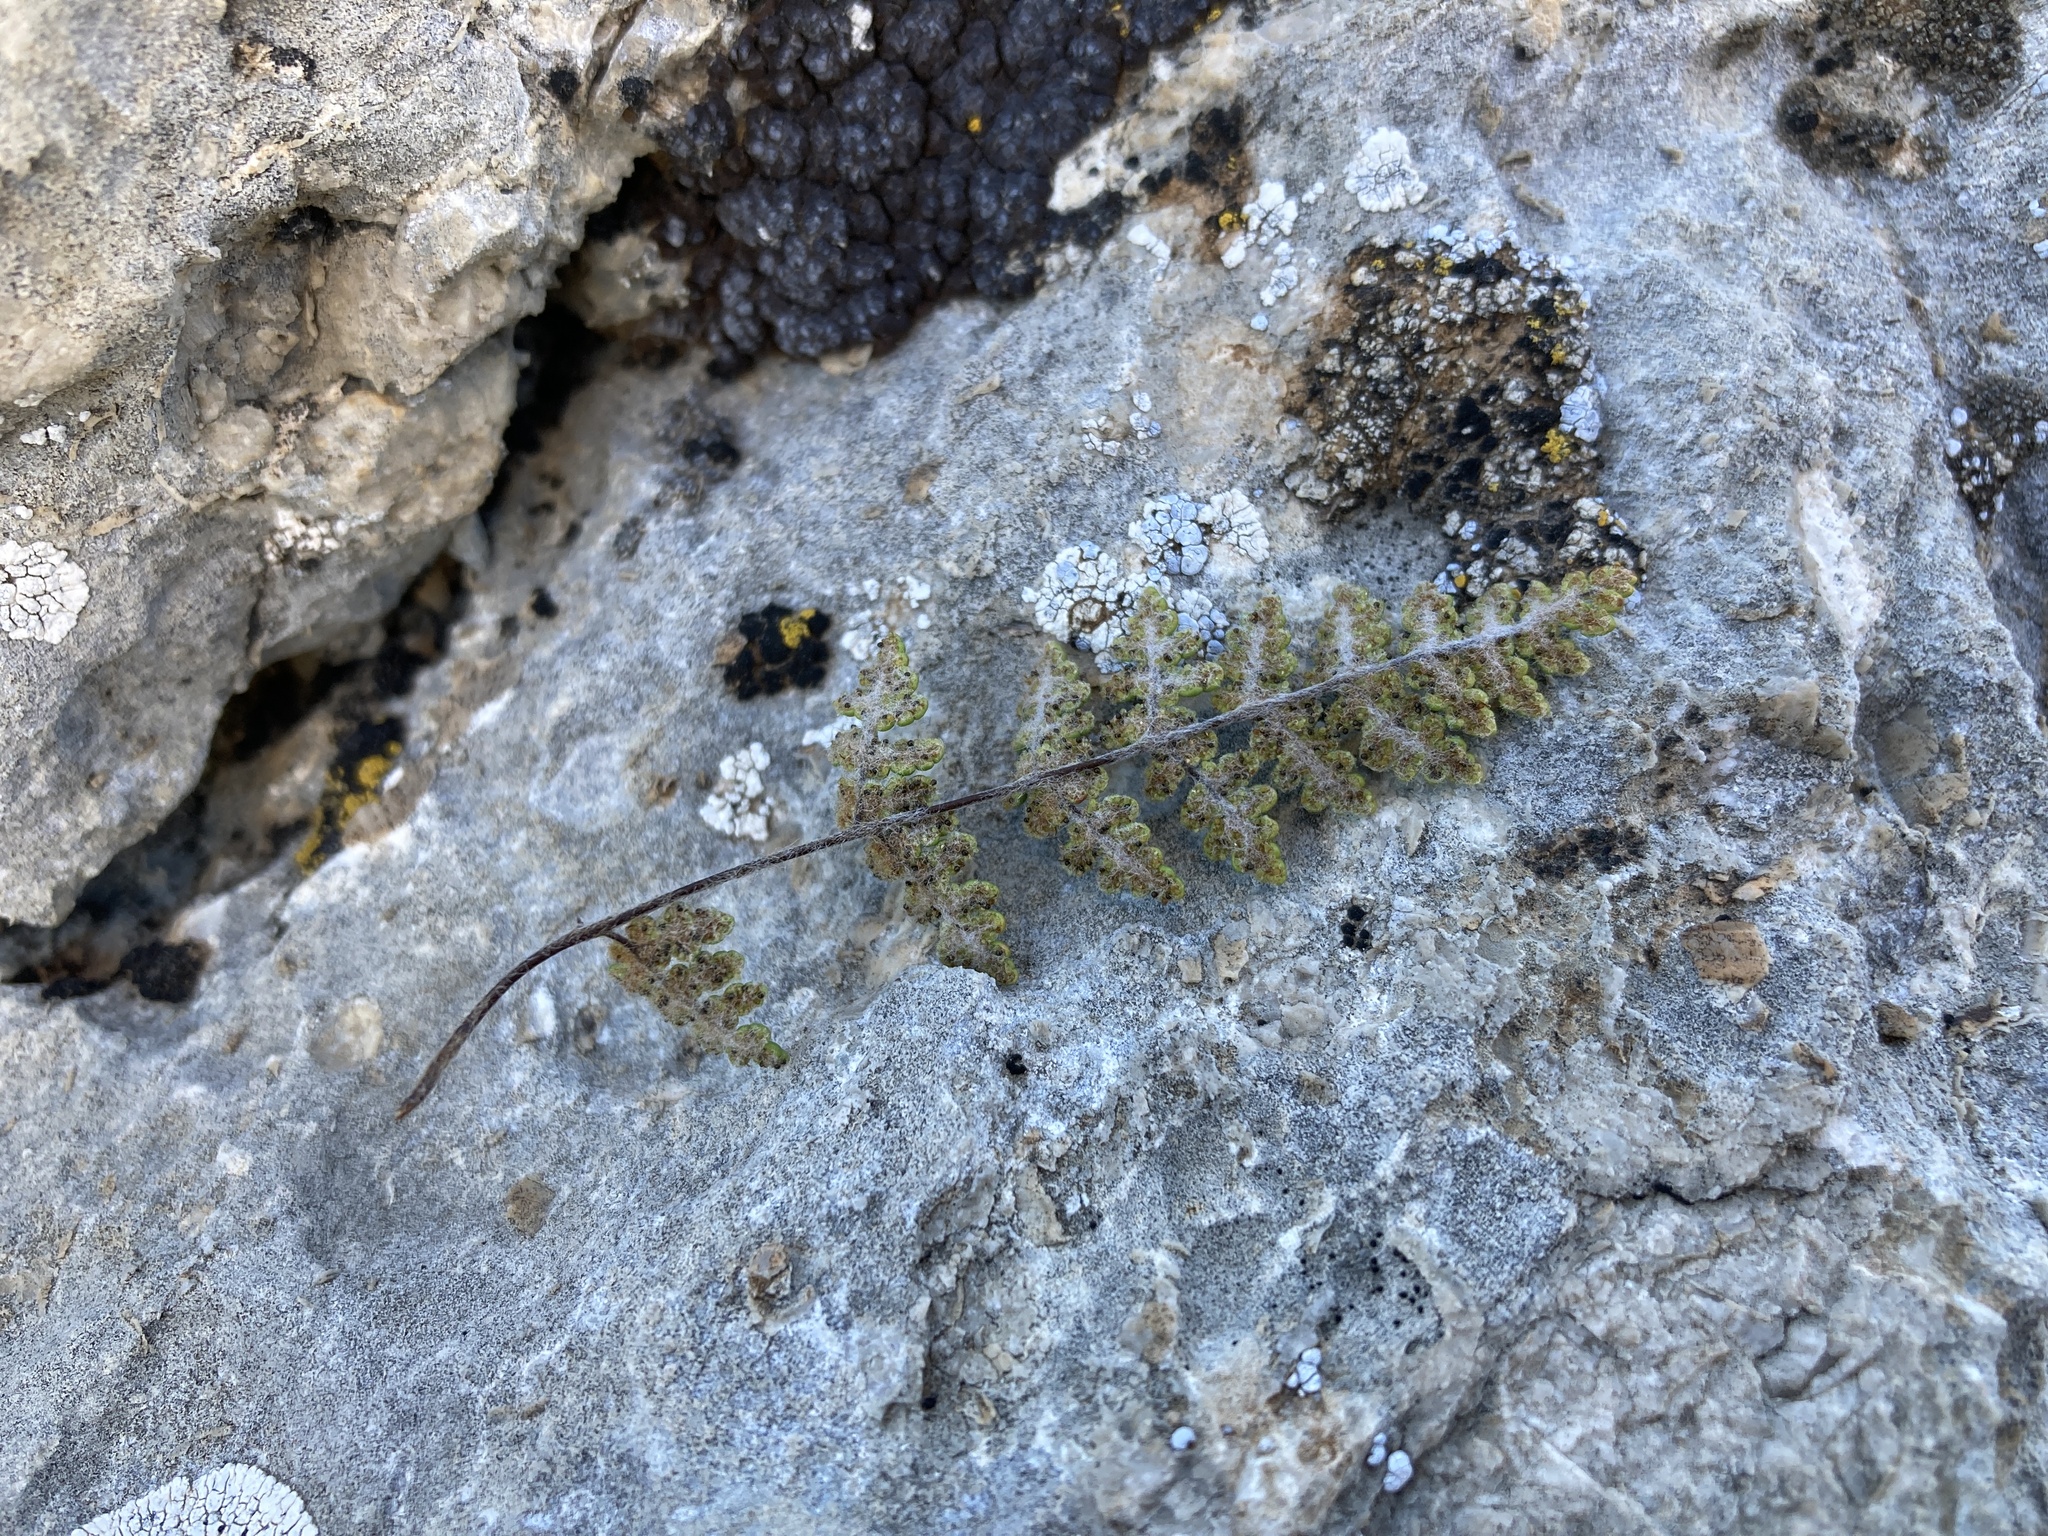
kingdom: Plantae
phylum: Tracheophyta
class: Polypodiopsida
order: Polypodiales
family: Pteridaceae
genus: Myriopteris
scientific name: Myriopteris gracilis
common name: Fee's lip fern
